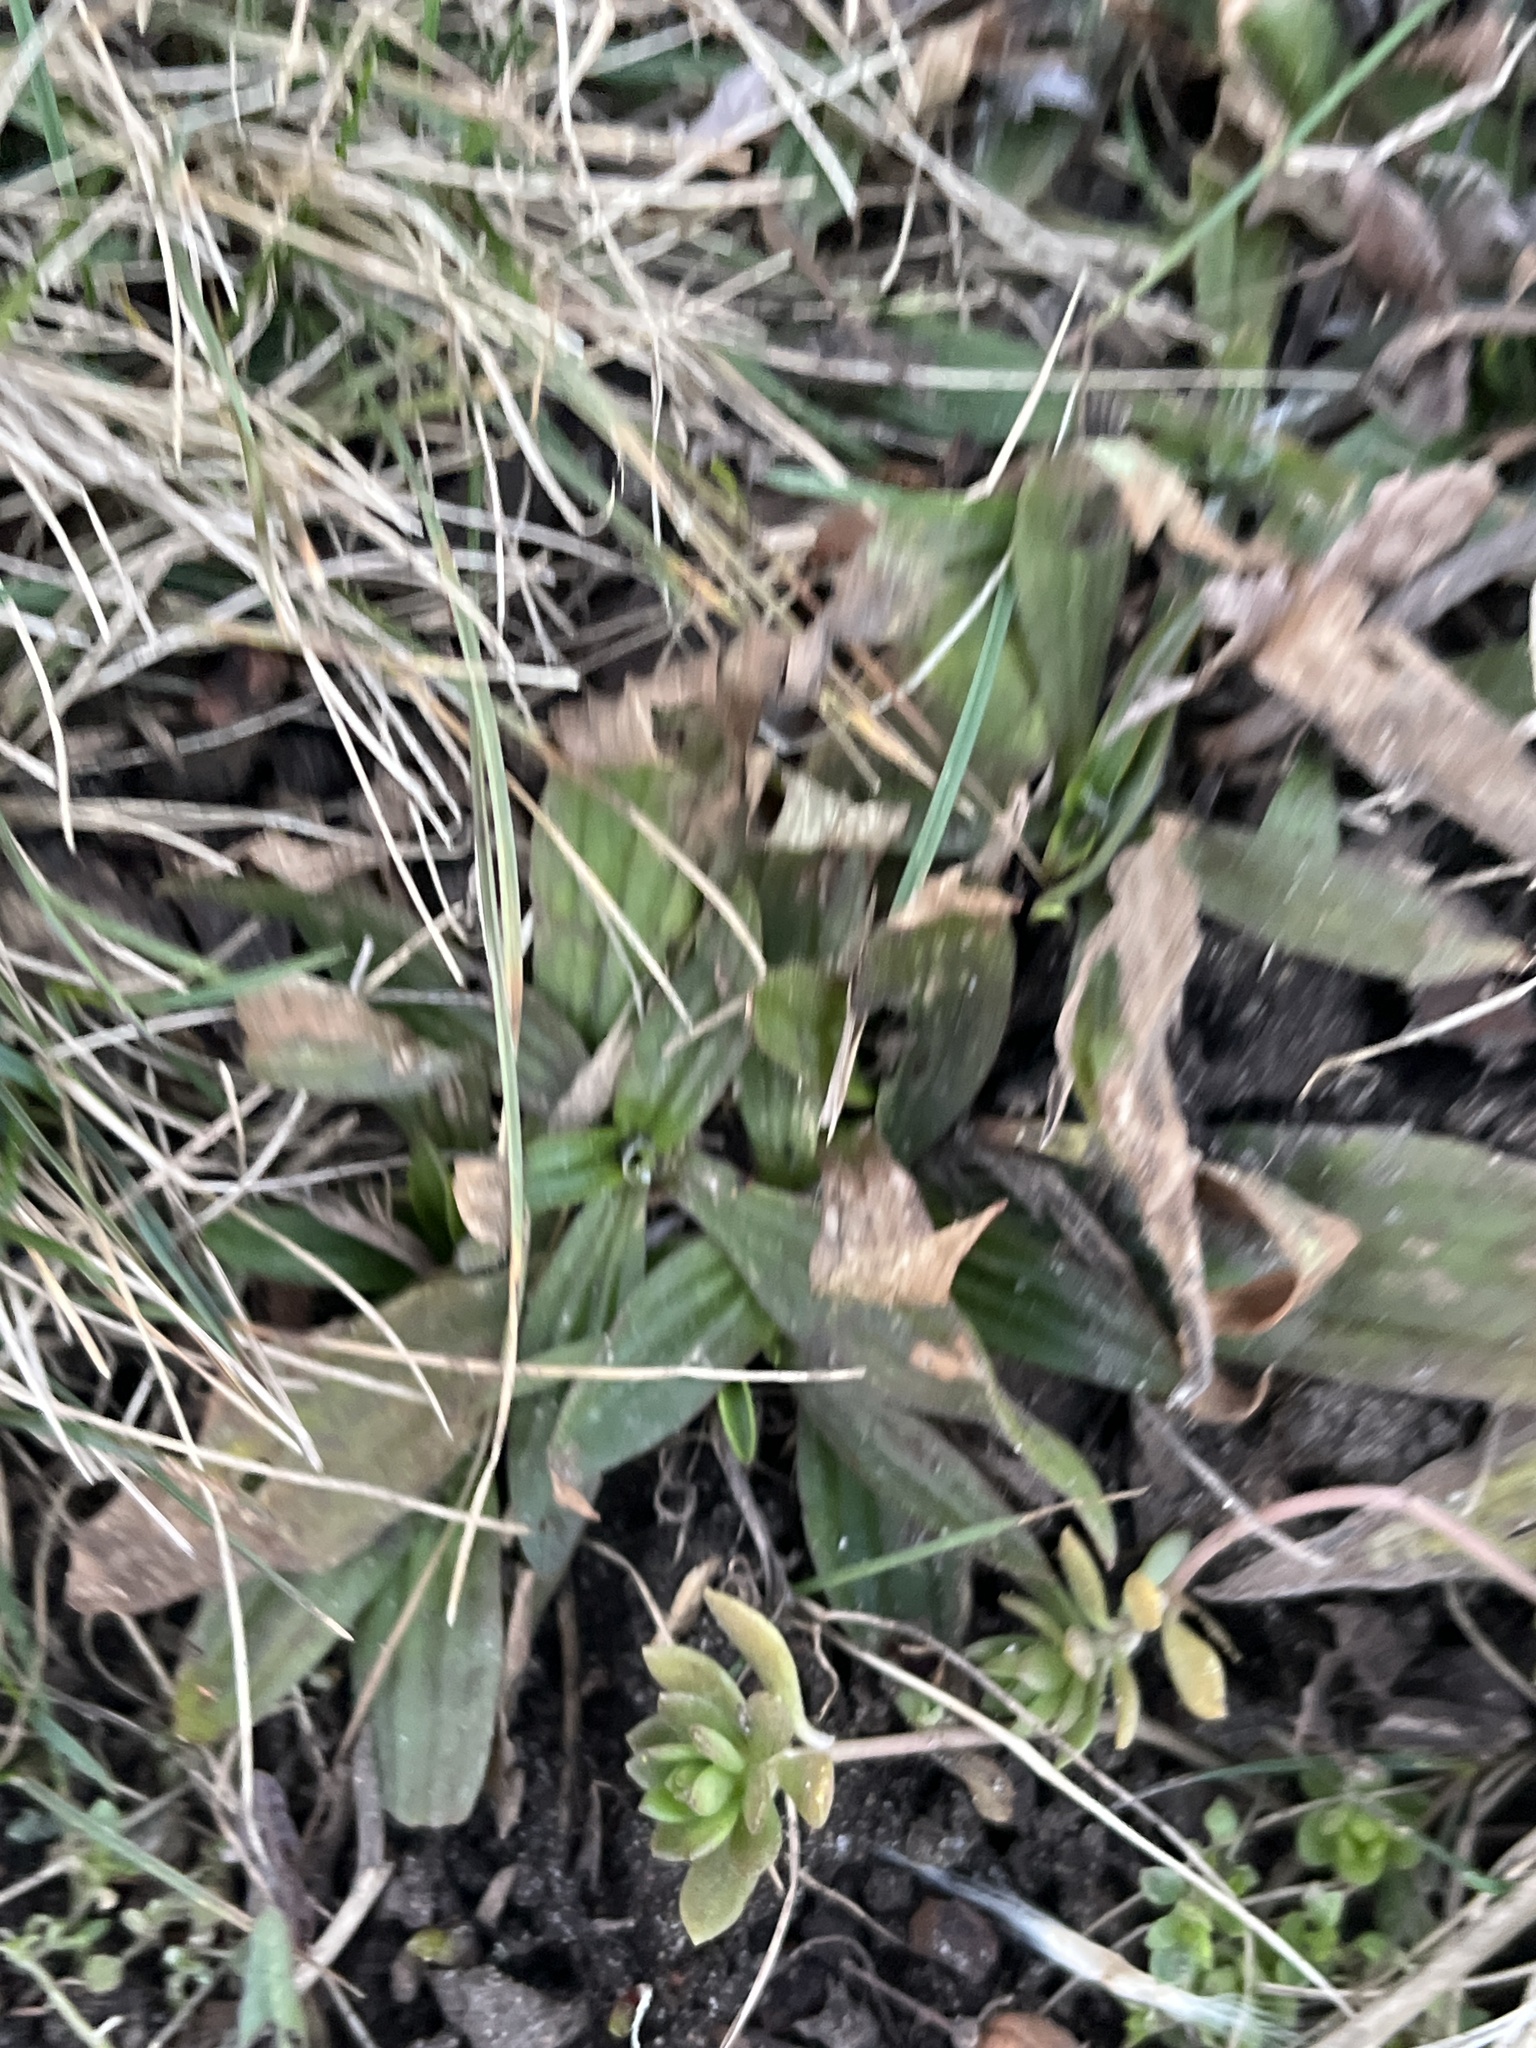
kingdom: Plantae
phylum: Tracheophyta
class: Magnoliopsida
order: Lamiales
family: Plantaginaceae
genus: Plantago
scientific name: Plantago lanceolata
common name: Ribwort plantain
